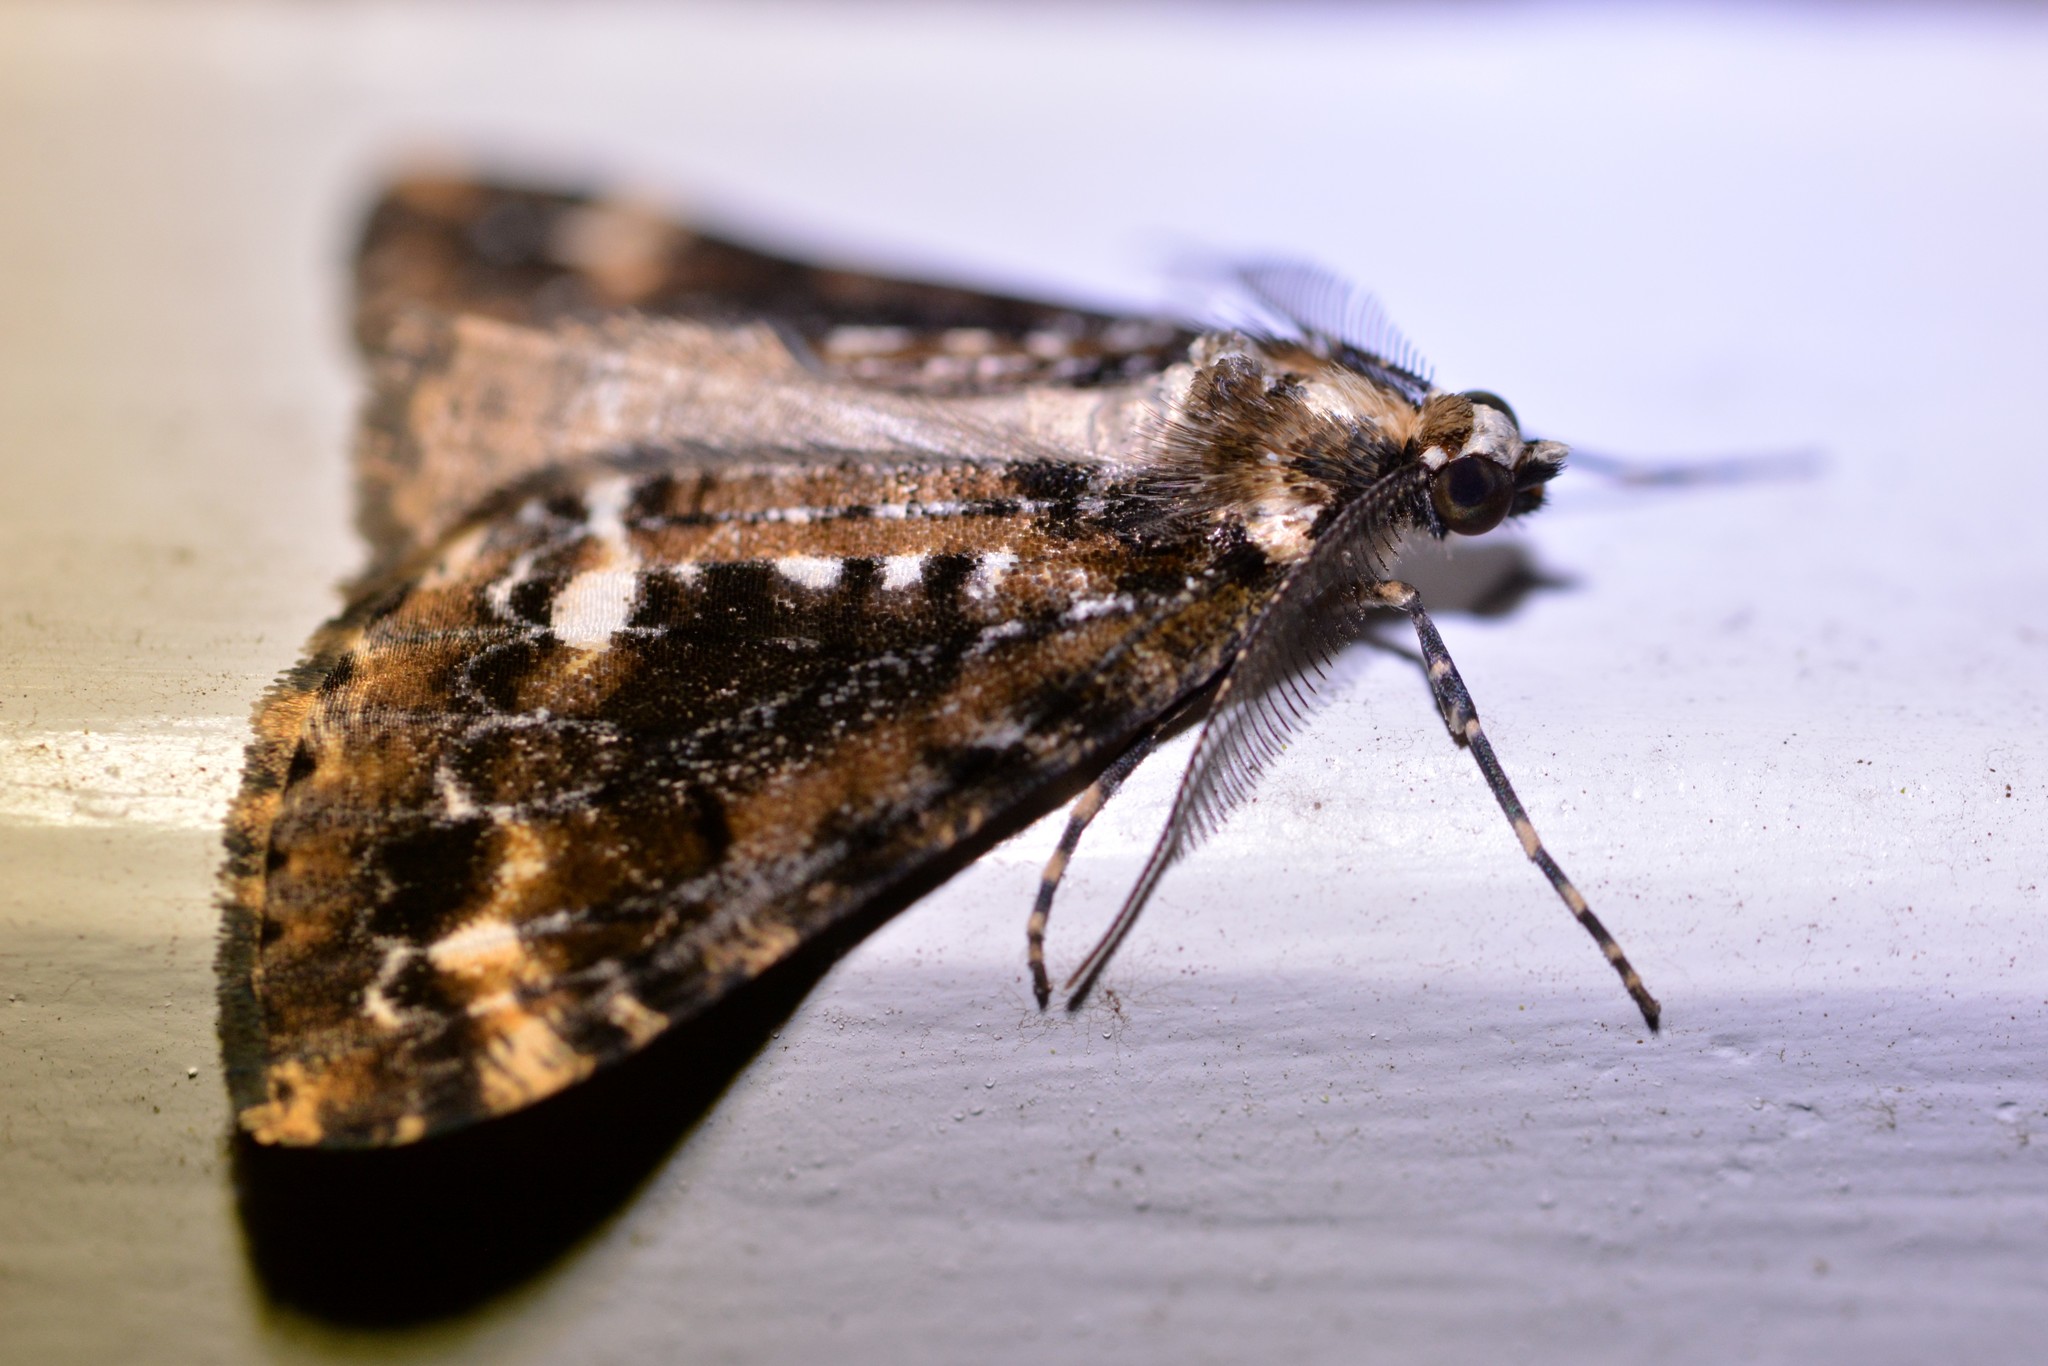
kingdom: Animalia
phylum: Arthropoda
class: Insecta
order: Lepidoptera
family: Geometridae
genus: Pseudocoremia
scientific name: Pseudocoremia leucelaea
